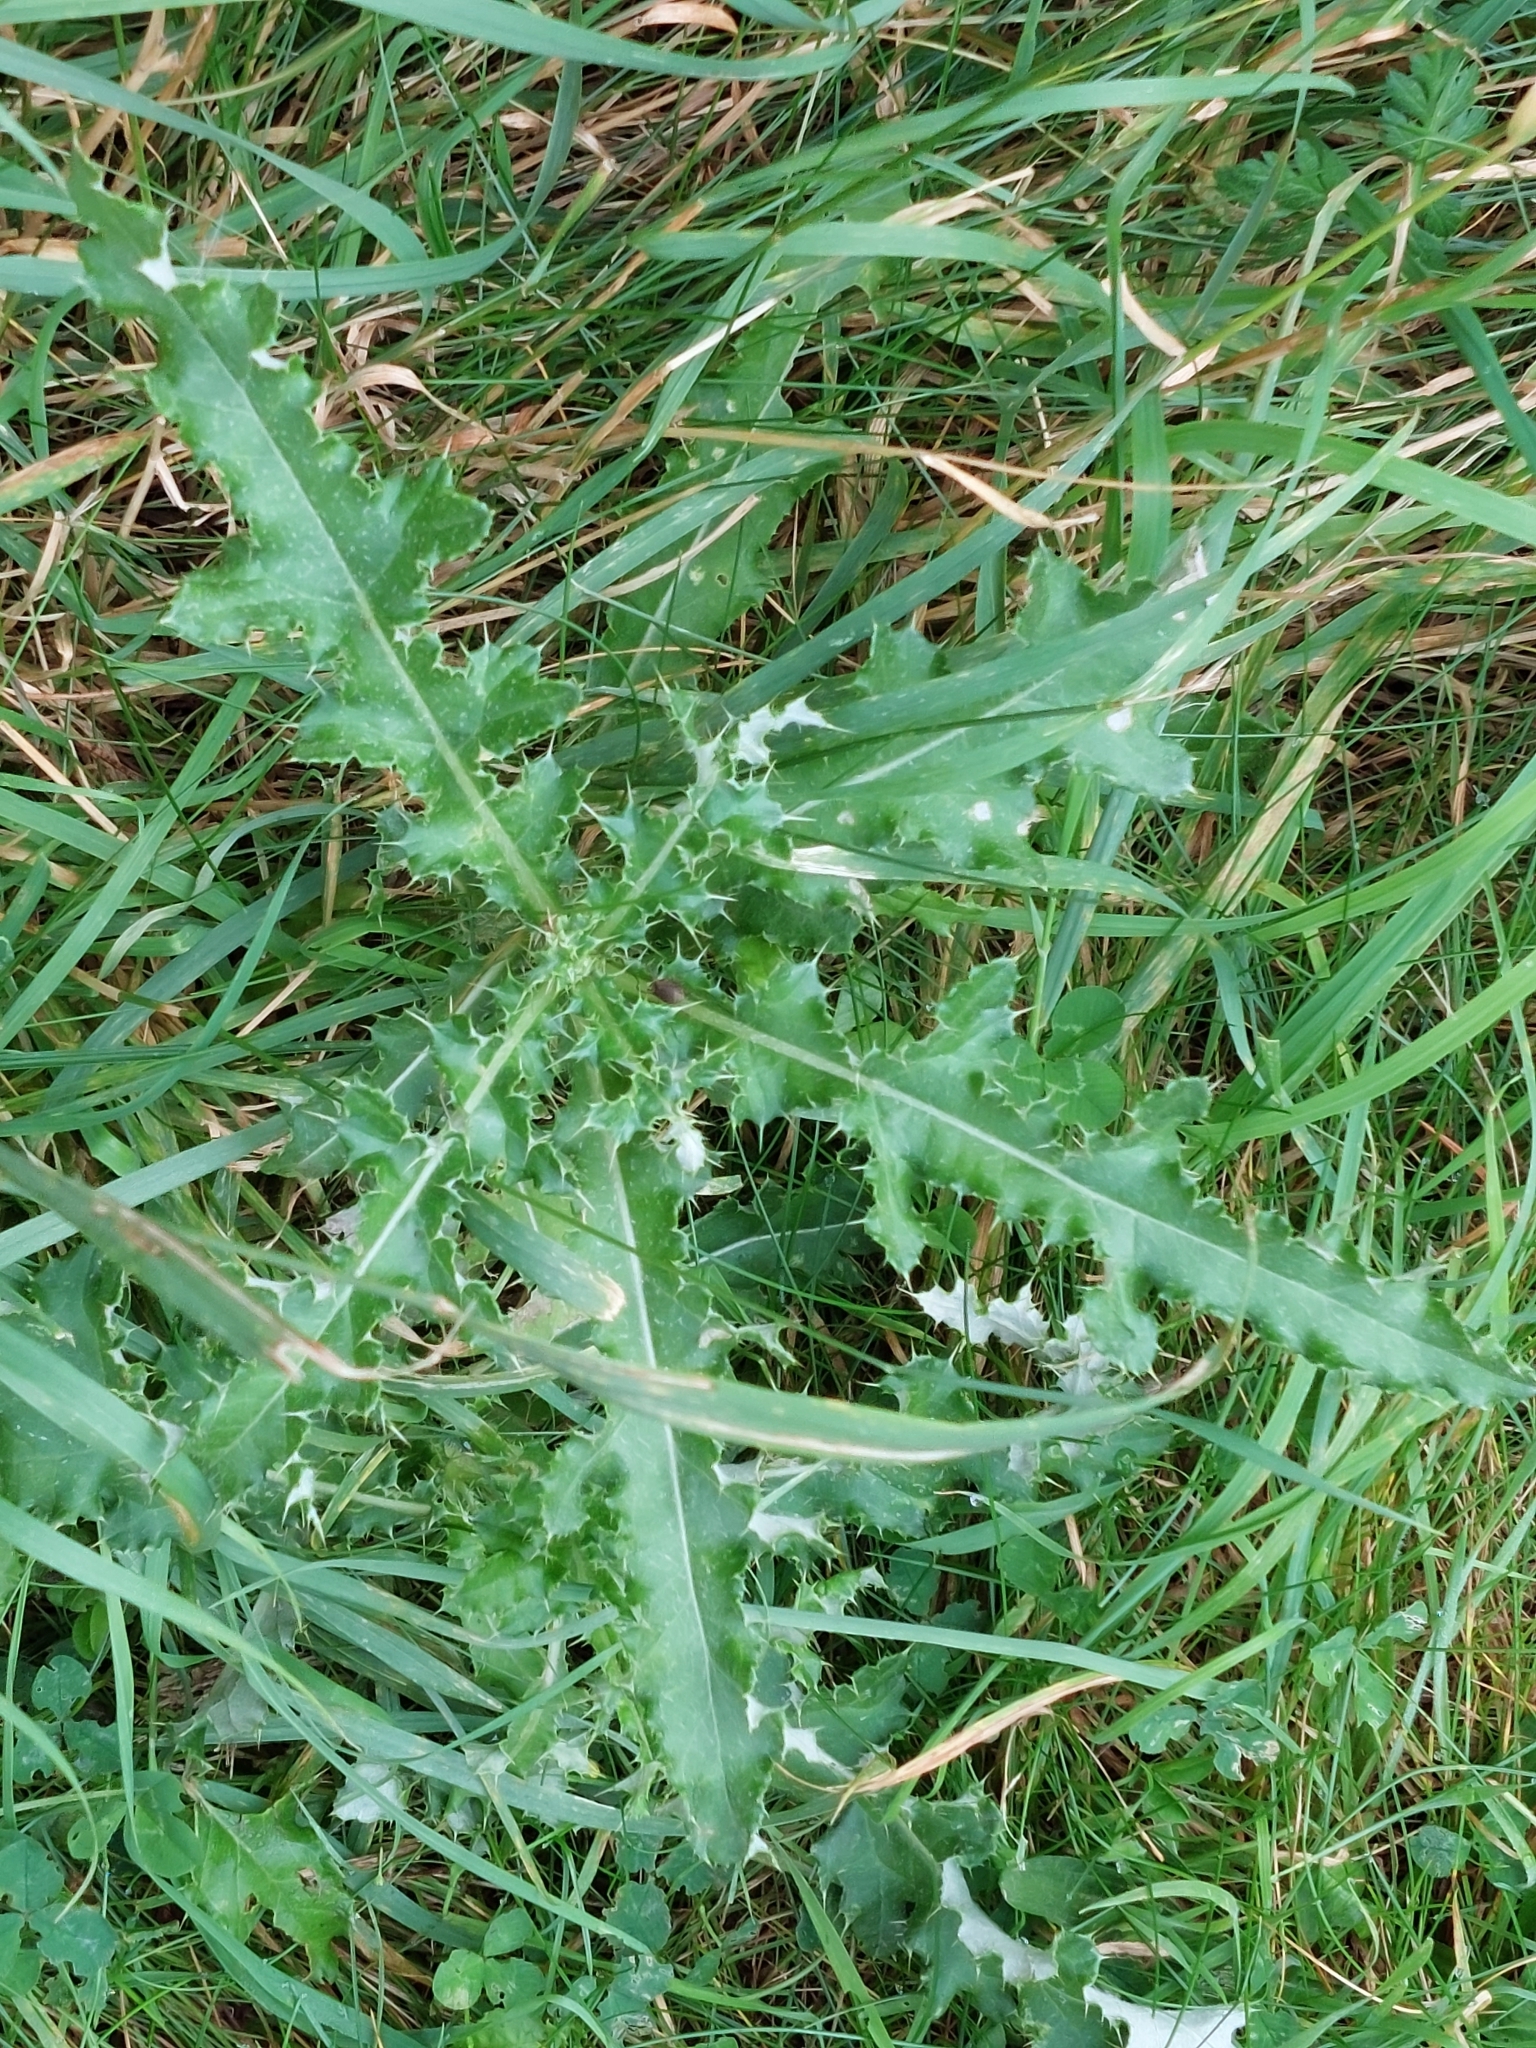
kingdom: Plantae
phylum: Tracheophyta
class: Magnoliopsida
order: Asterales
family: Asteraceae
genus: Cirsium
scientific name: Cirsium arvense
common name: Creeping thistle
